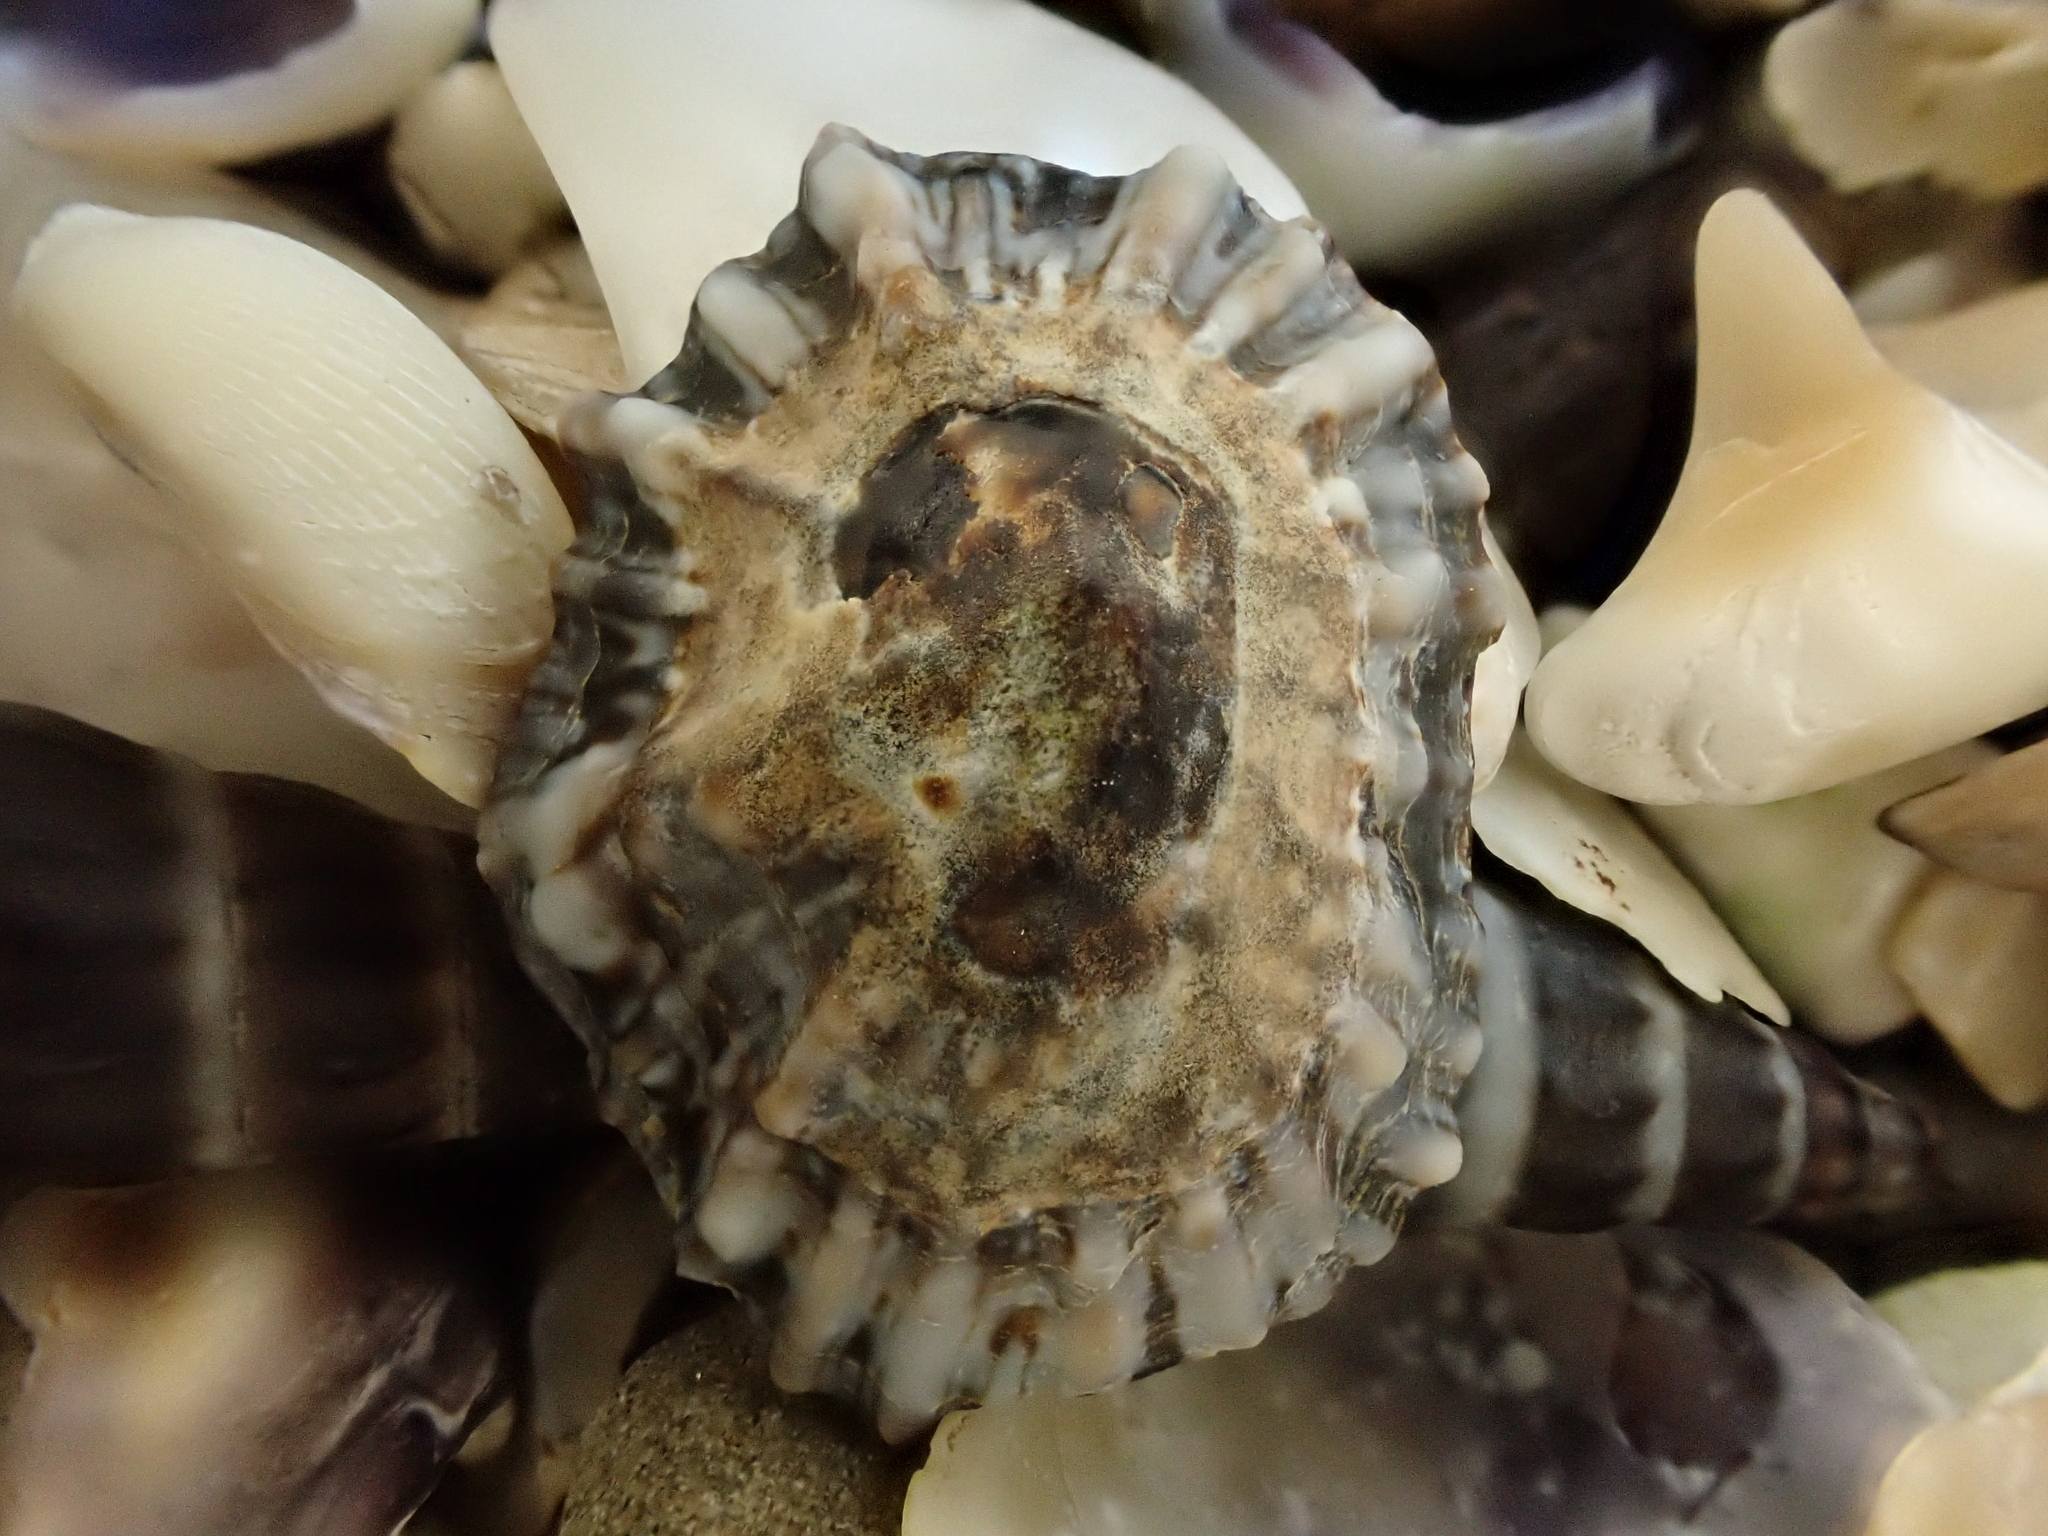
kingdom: Animalia
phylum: Mollusca
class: Gastropoda
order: Siphonariida
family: Siphonariidae
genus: Siphonaria
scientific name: Siphonaria australis
